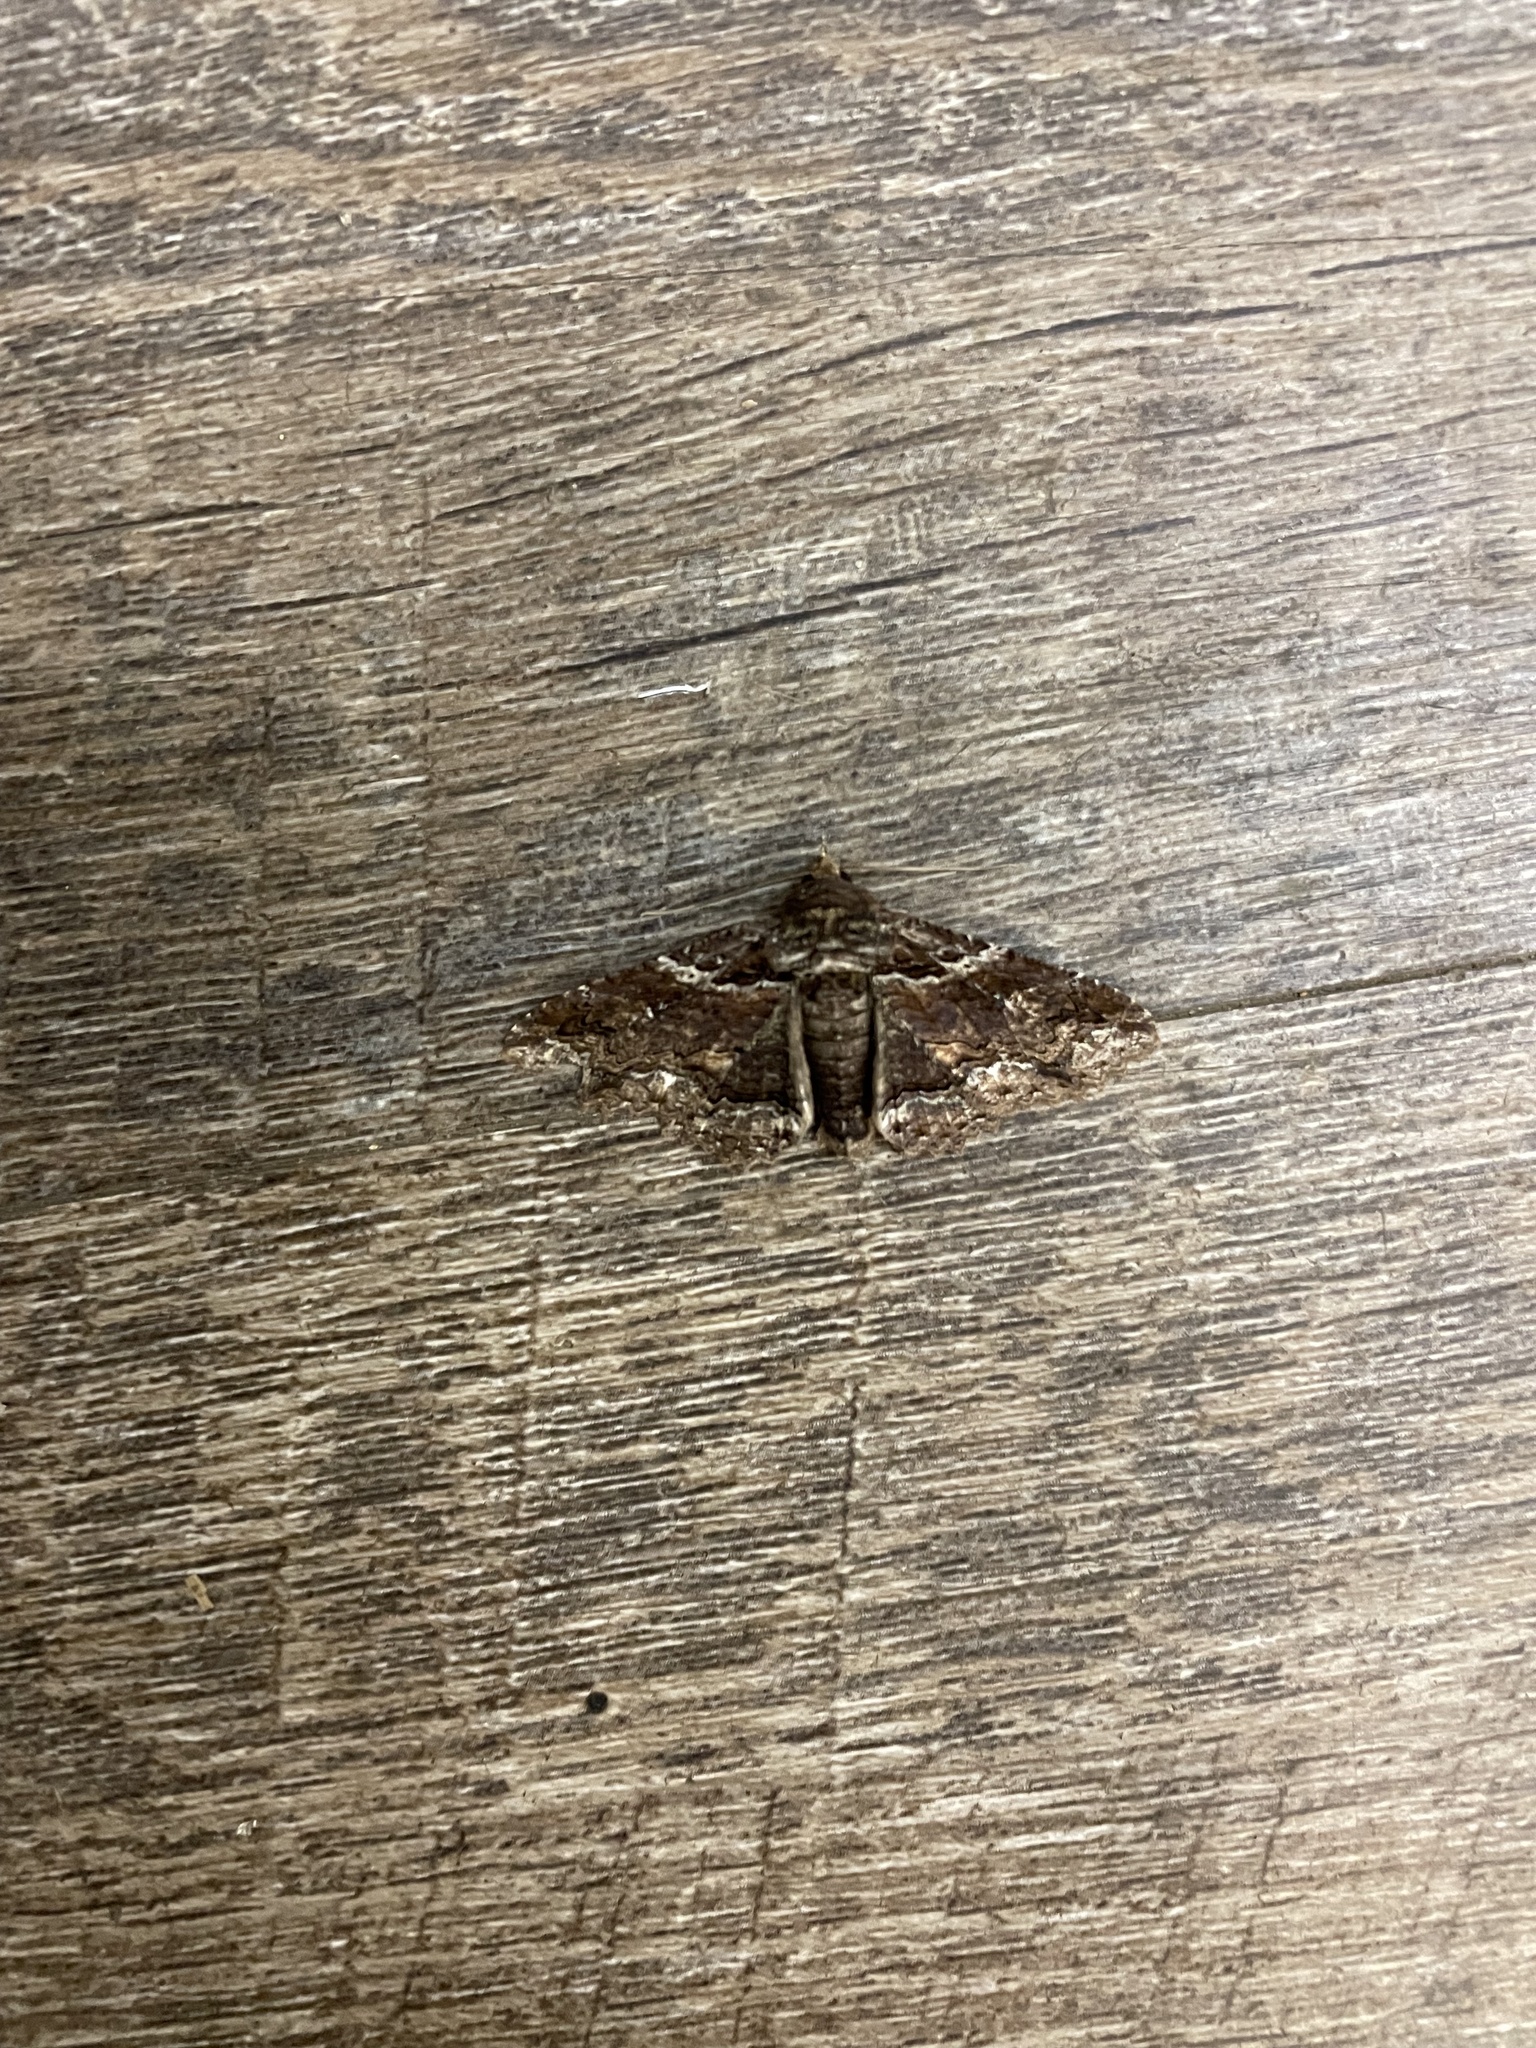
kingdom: Animalia
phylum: Arthropoda
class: Insecta
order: Lepidoptera
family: Erebidae
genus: Zale
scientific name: Zale lunata
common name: Lunate zale moth
